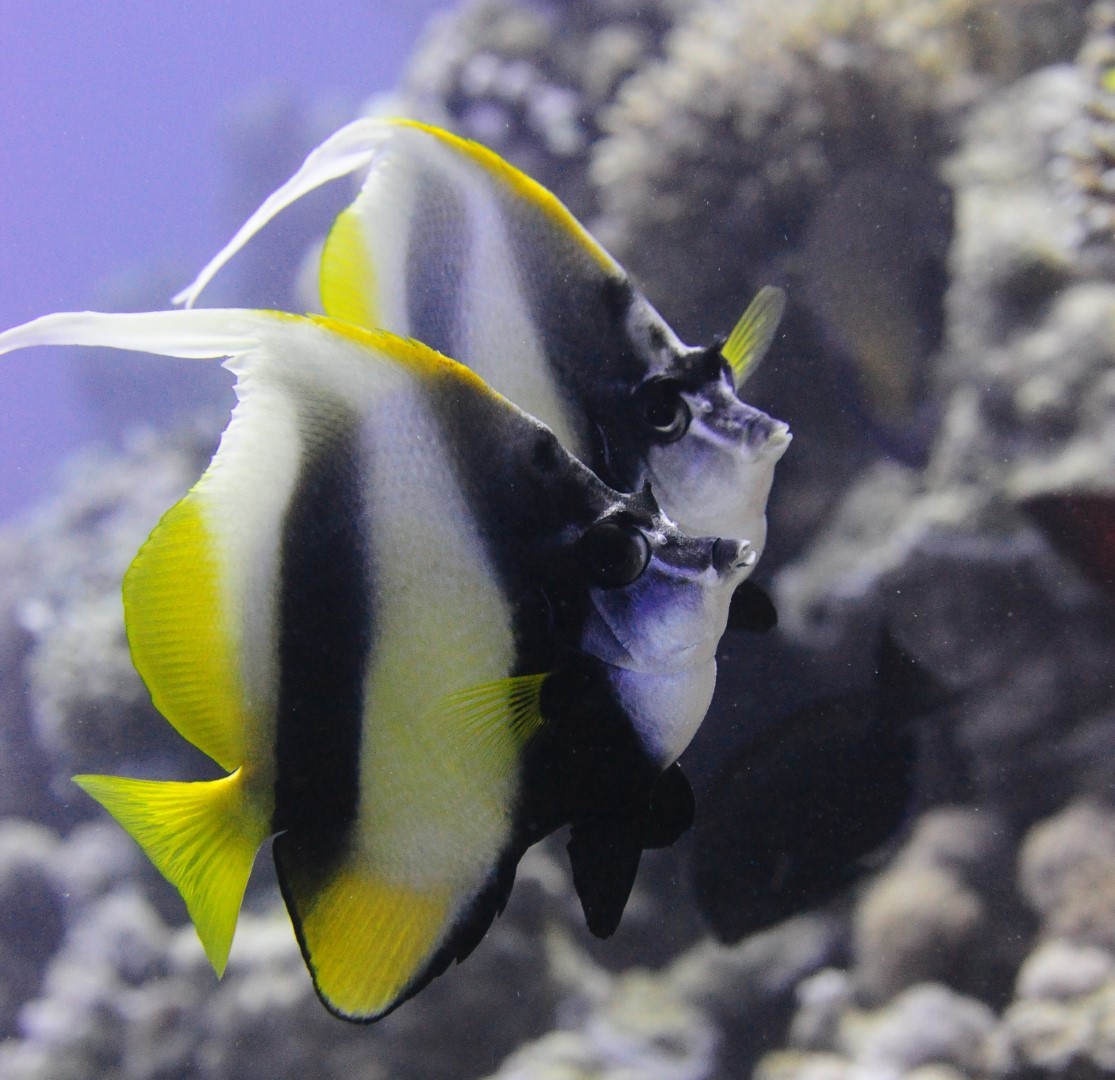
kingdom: Animalia
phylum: Chordata
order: Perciformes
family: Chaetodontidae
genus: Heniochus
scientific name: Heniochus intermedius
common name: Red sea bannerfish
